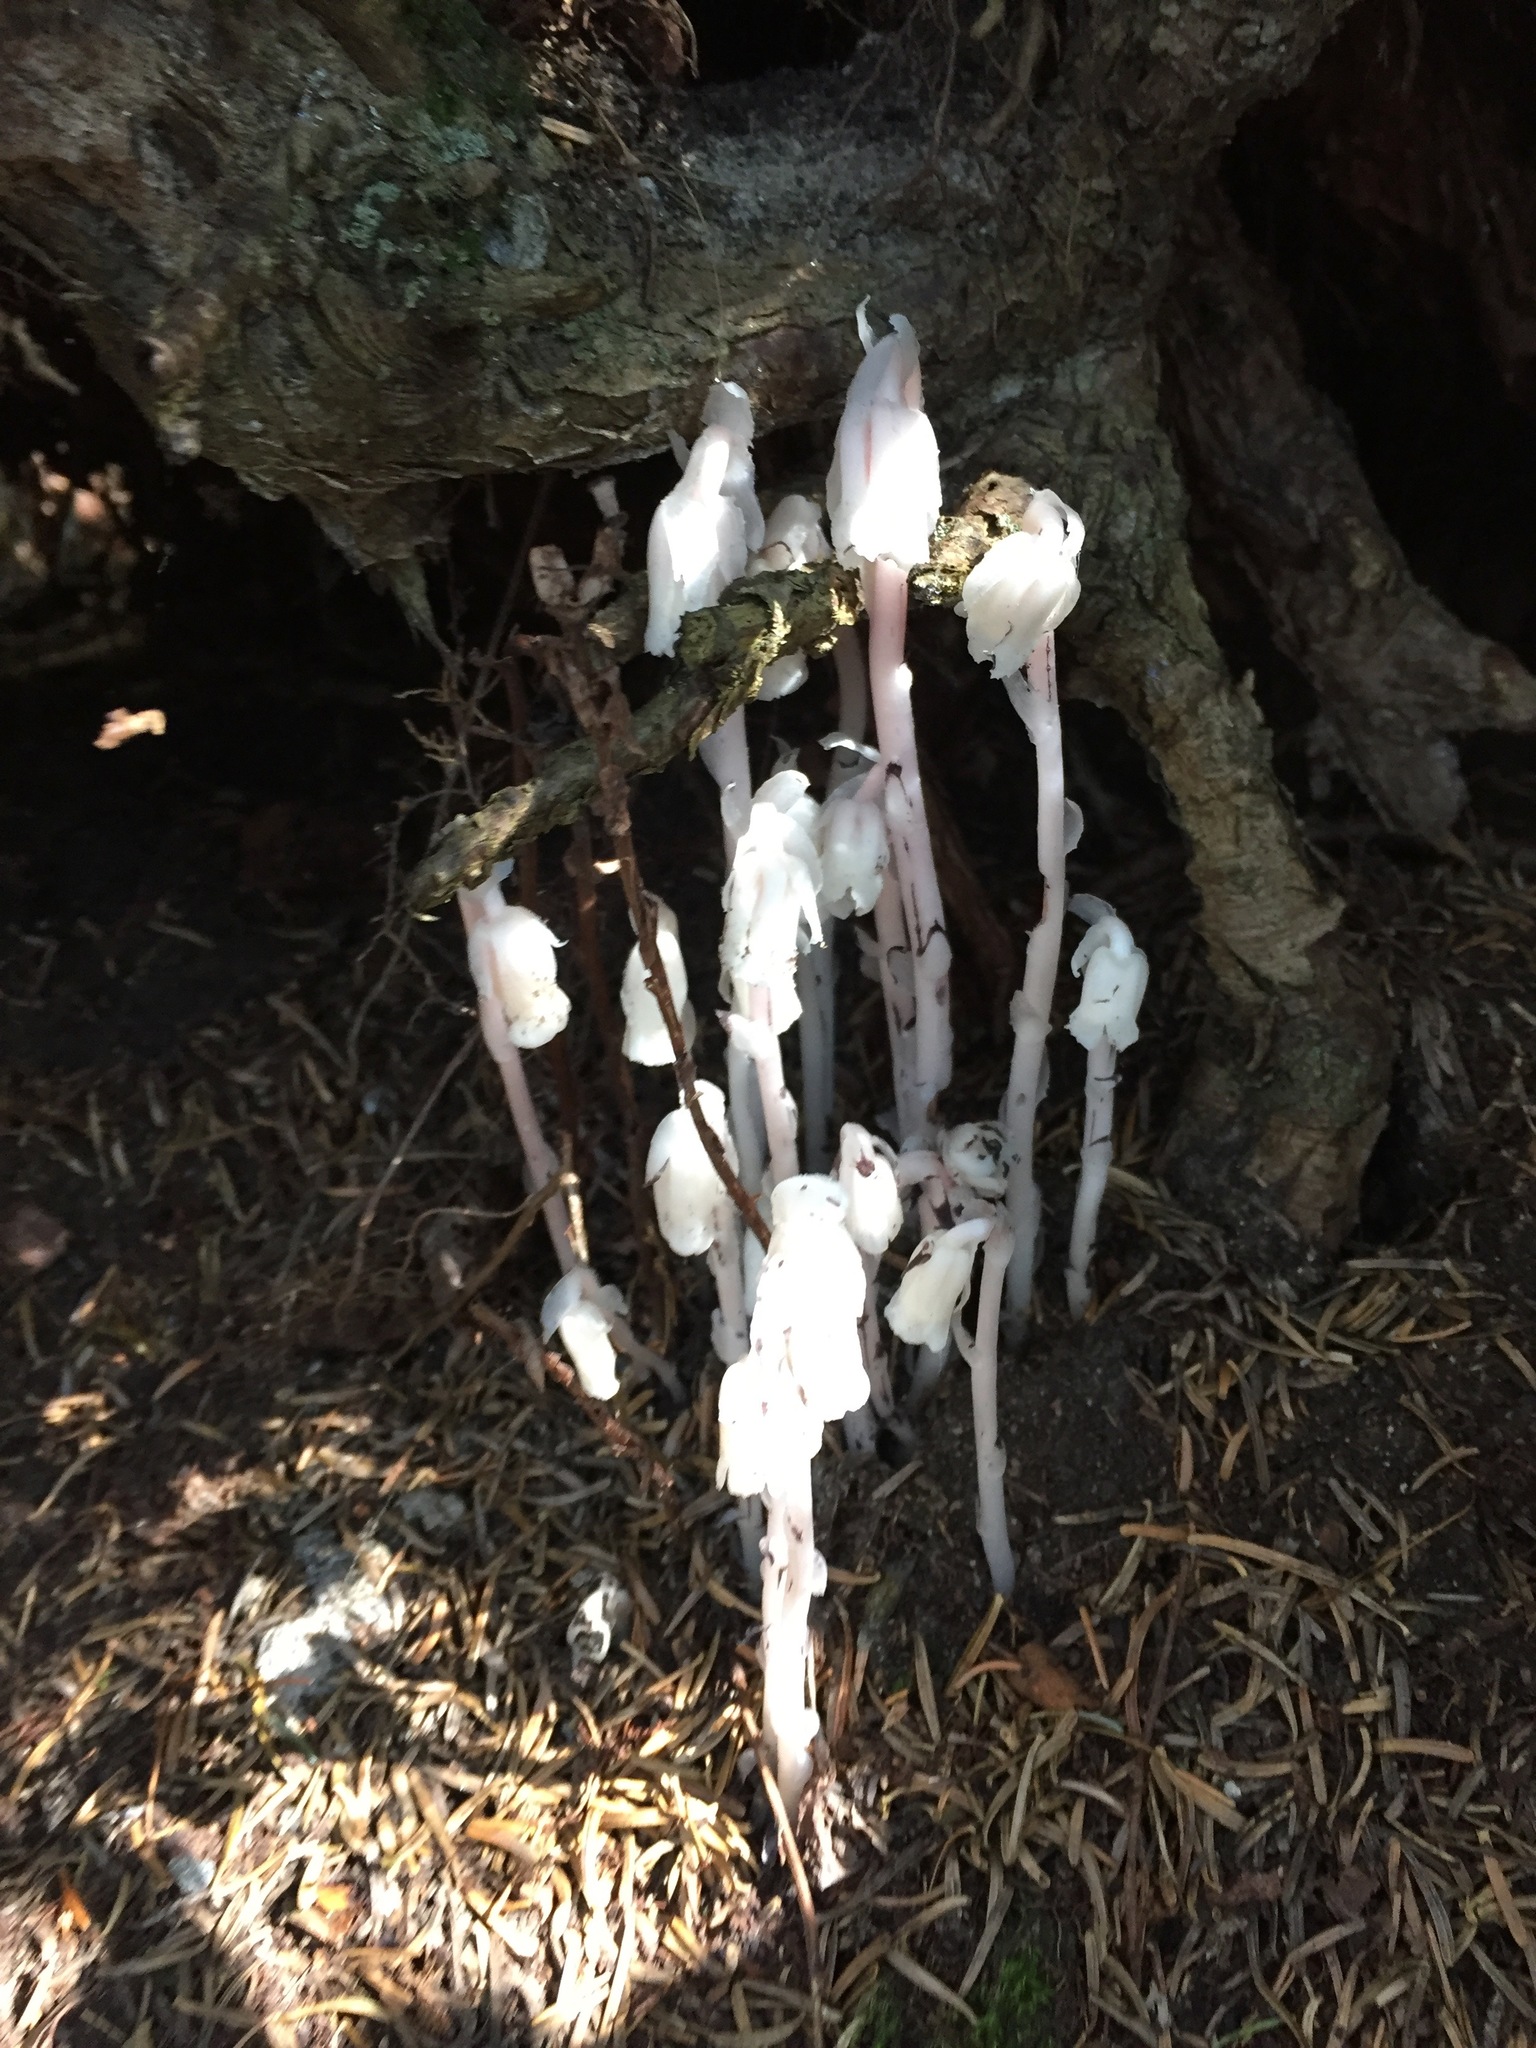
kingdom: Plantae
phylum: Tracheophyta
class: Magnoliopsida
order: Ericales
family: Ericaceae
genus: Monotropa
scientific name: Monotropa uniflora
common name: Convulsion root
